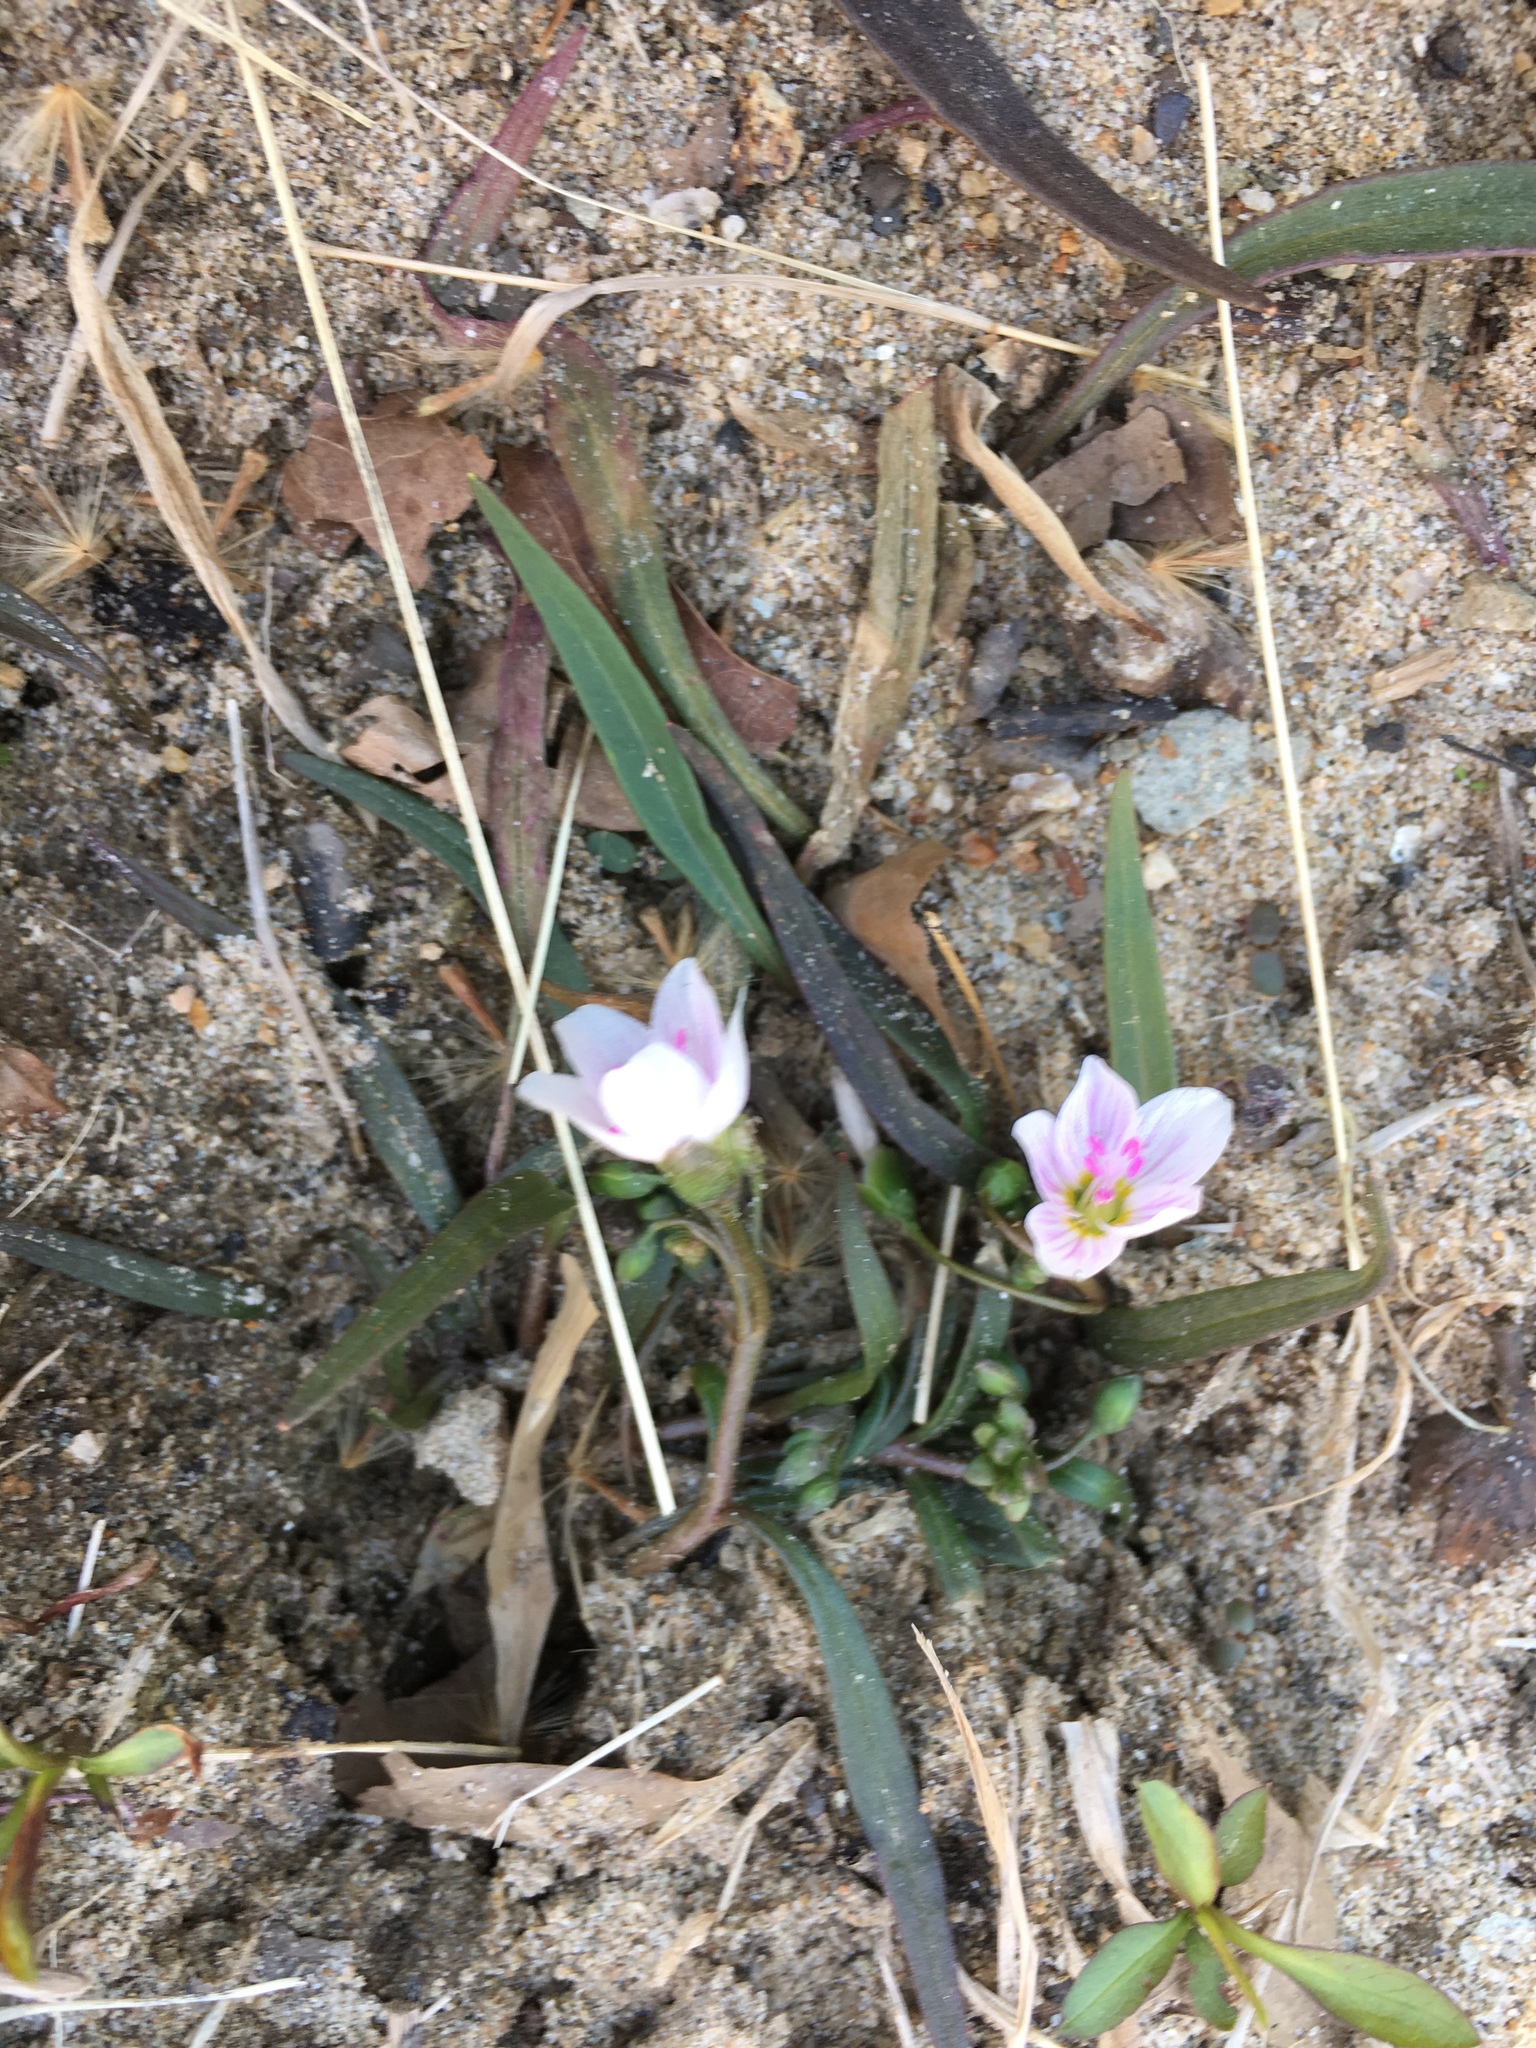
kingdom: Plantae
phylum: Tracheophyta
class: Magnoliopsida
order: Caryophyllales
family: Montiaceae
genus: Claytonia
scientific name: Claytonia virginica
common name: Virginia springbeauty
